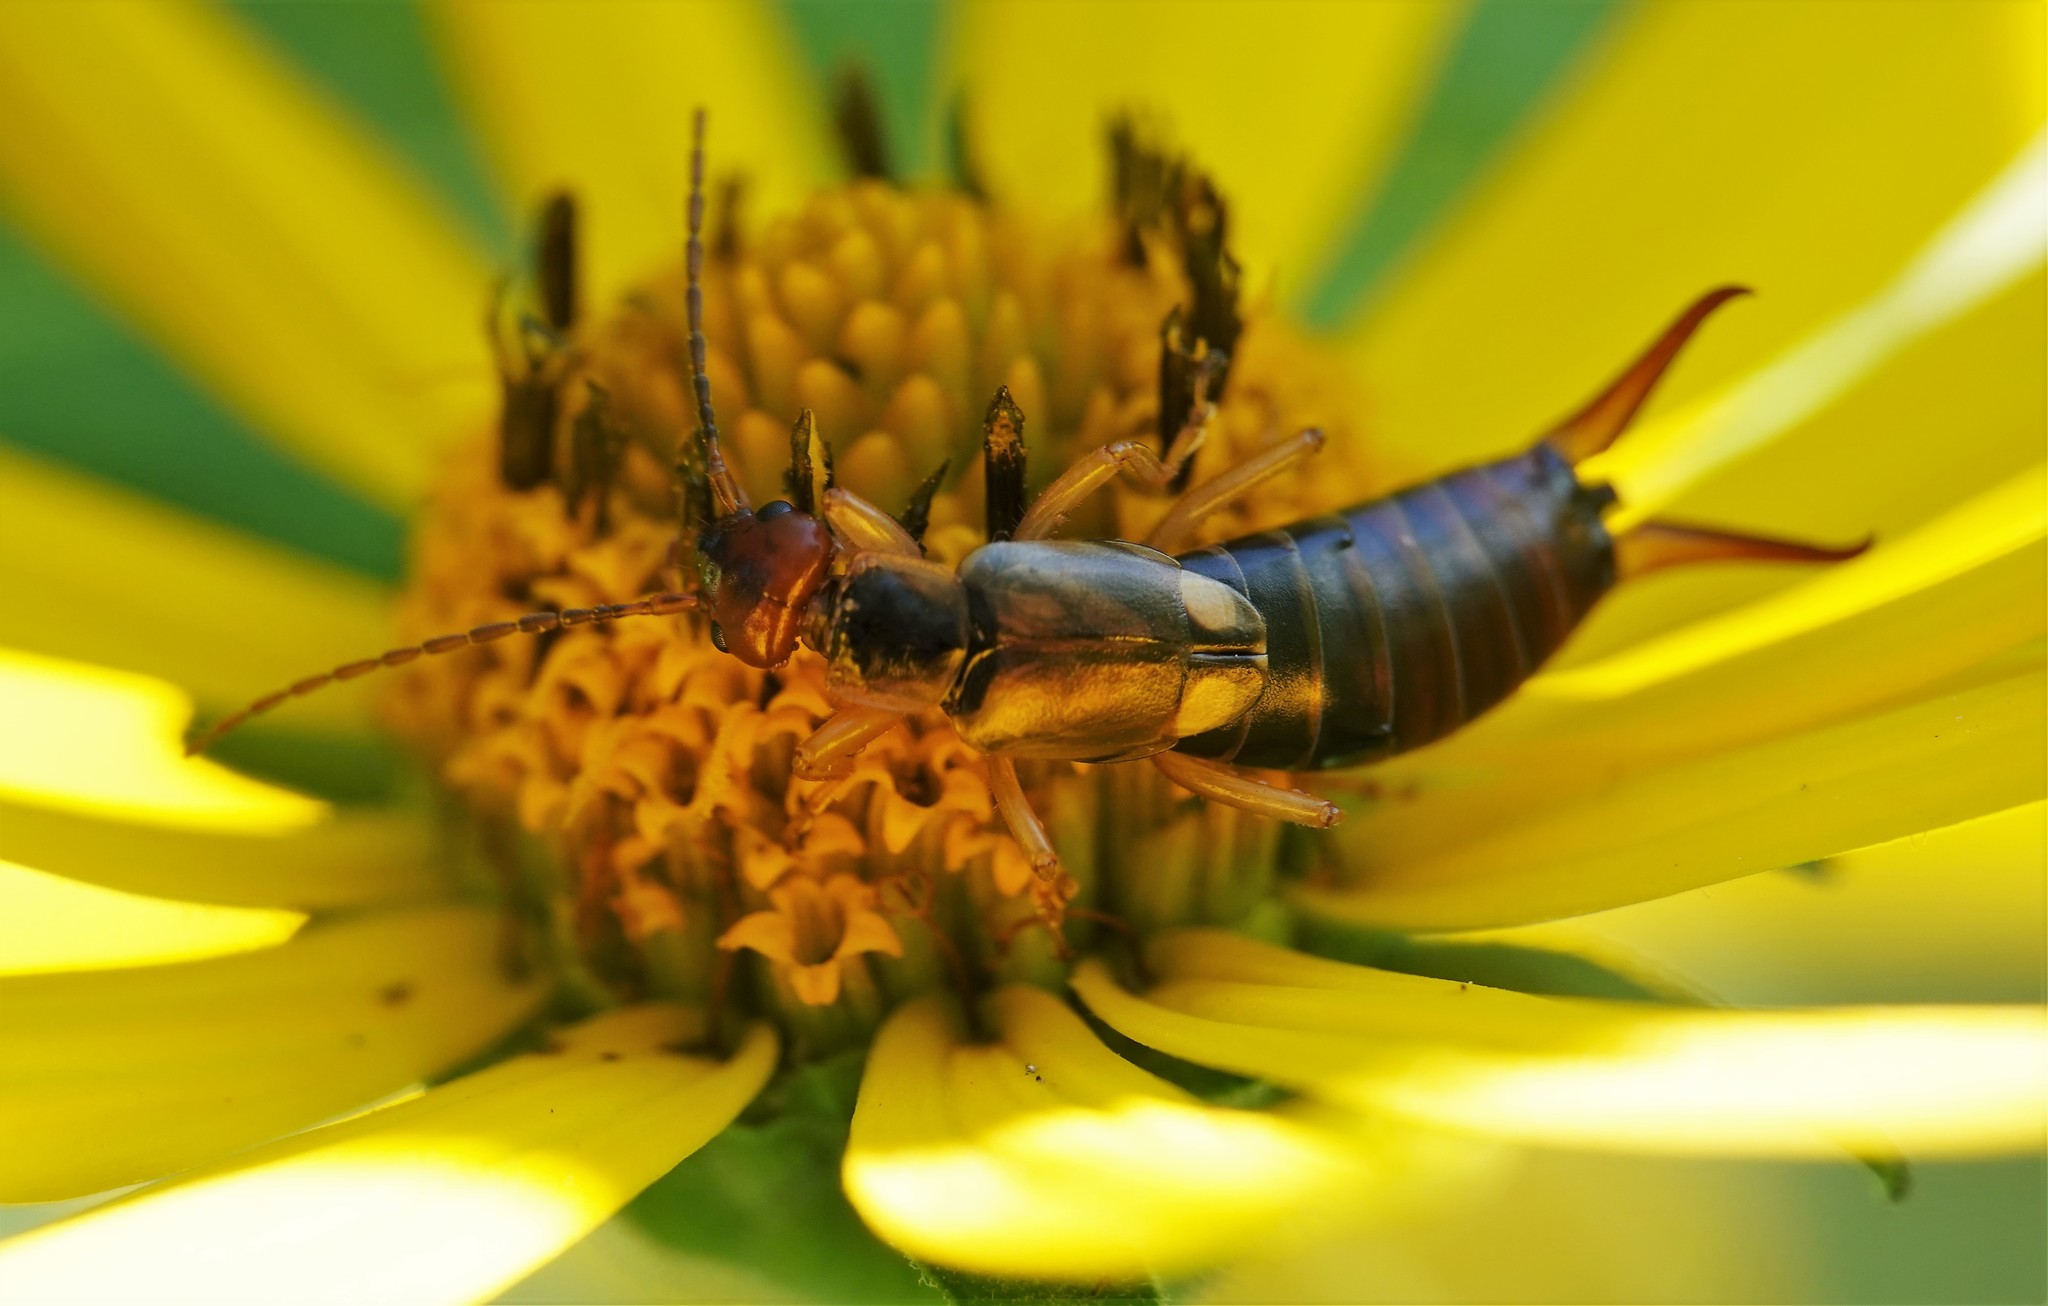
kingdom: Animalia
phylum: Arthropoda
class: Insecta
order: Dermaptera
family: Forficulidae
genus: Forficula
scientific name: Forficula
